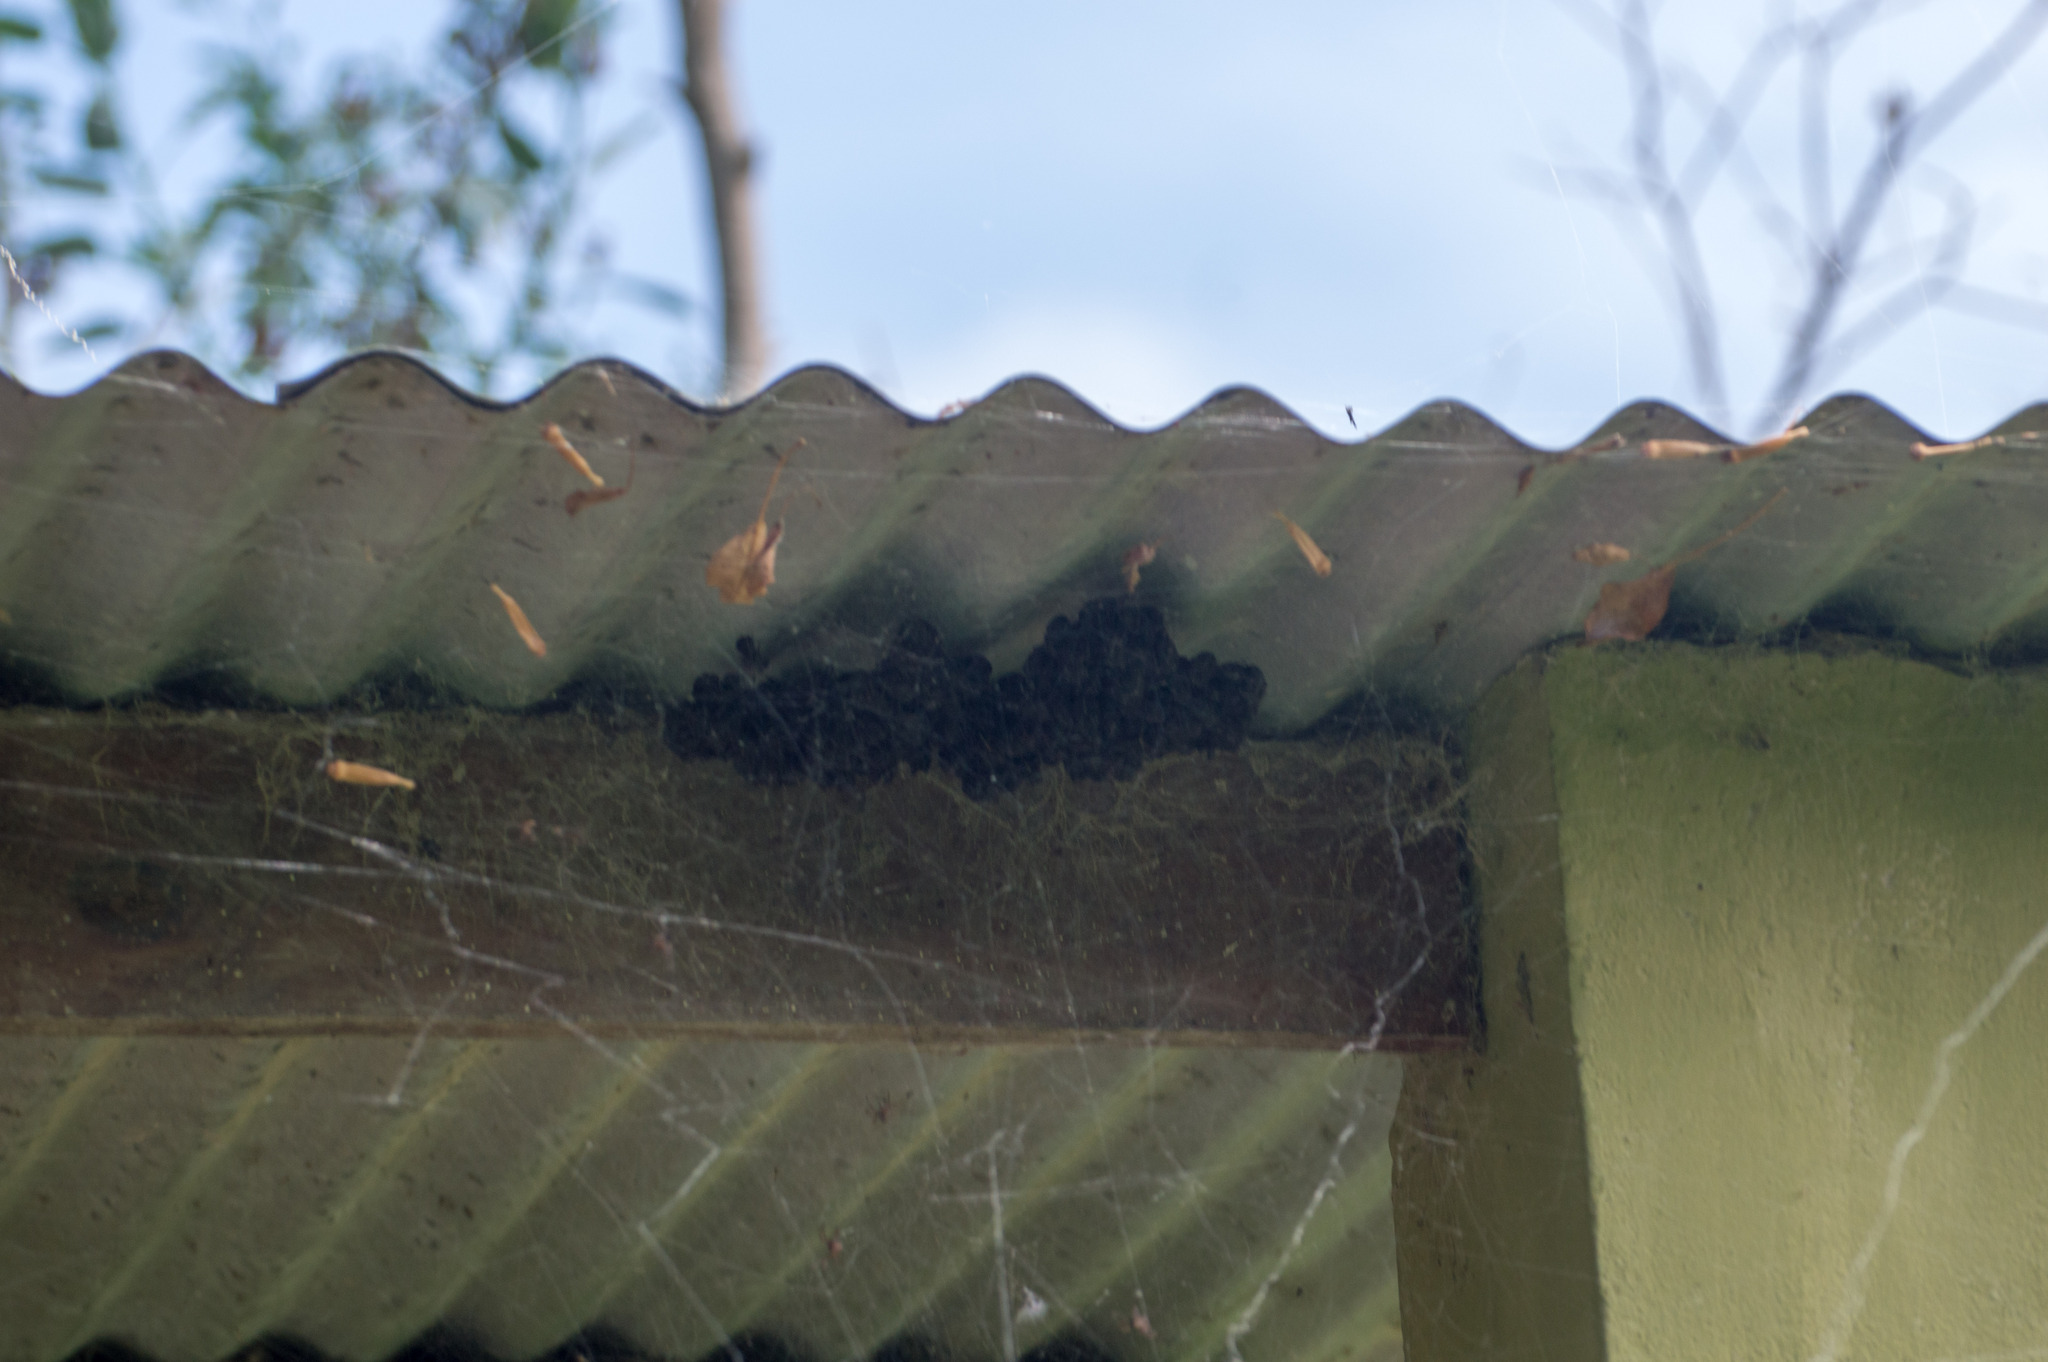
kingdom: Animalia
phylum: Arthropoda
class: Arachnida
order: Araneae
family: Araneidae
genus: Parawixia
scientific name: Parawixia bistriata
